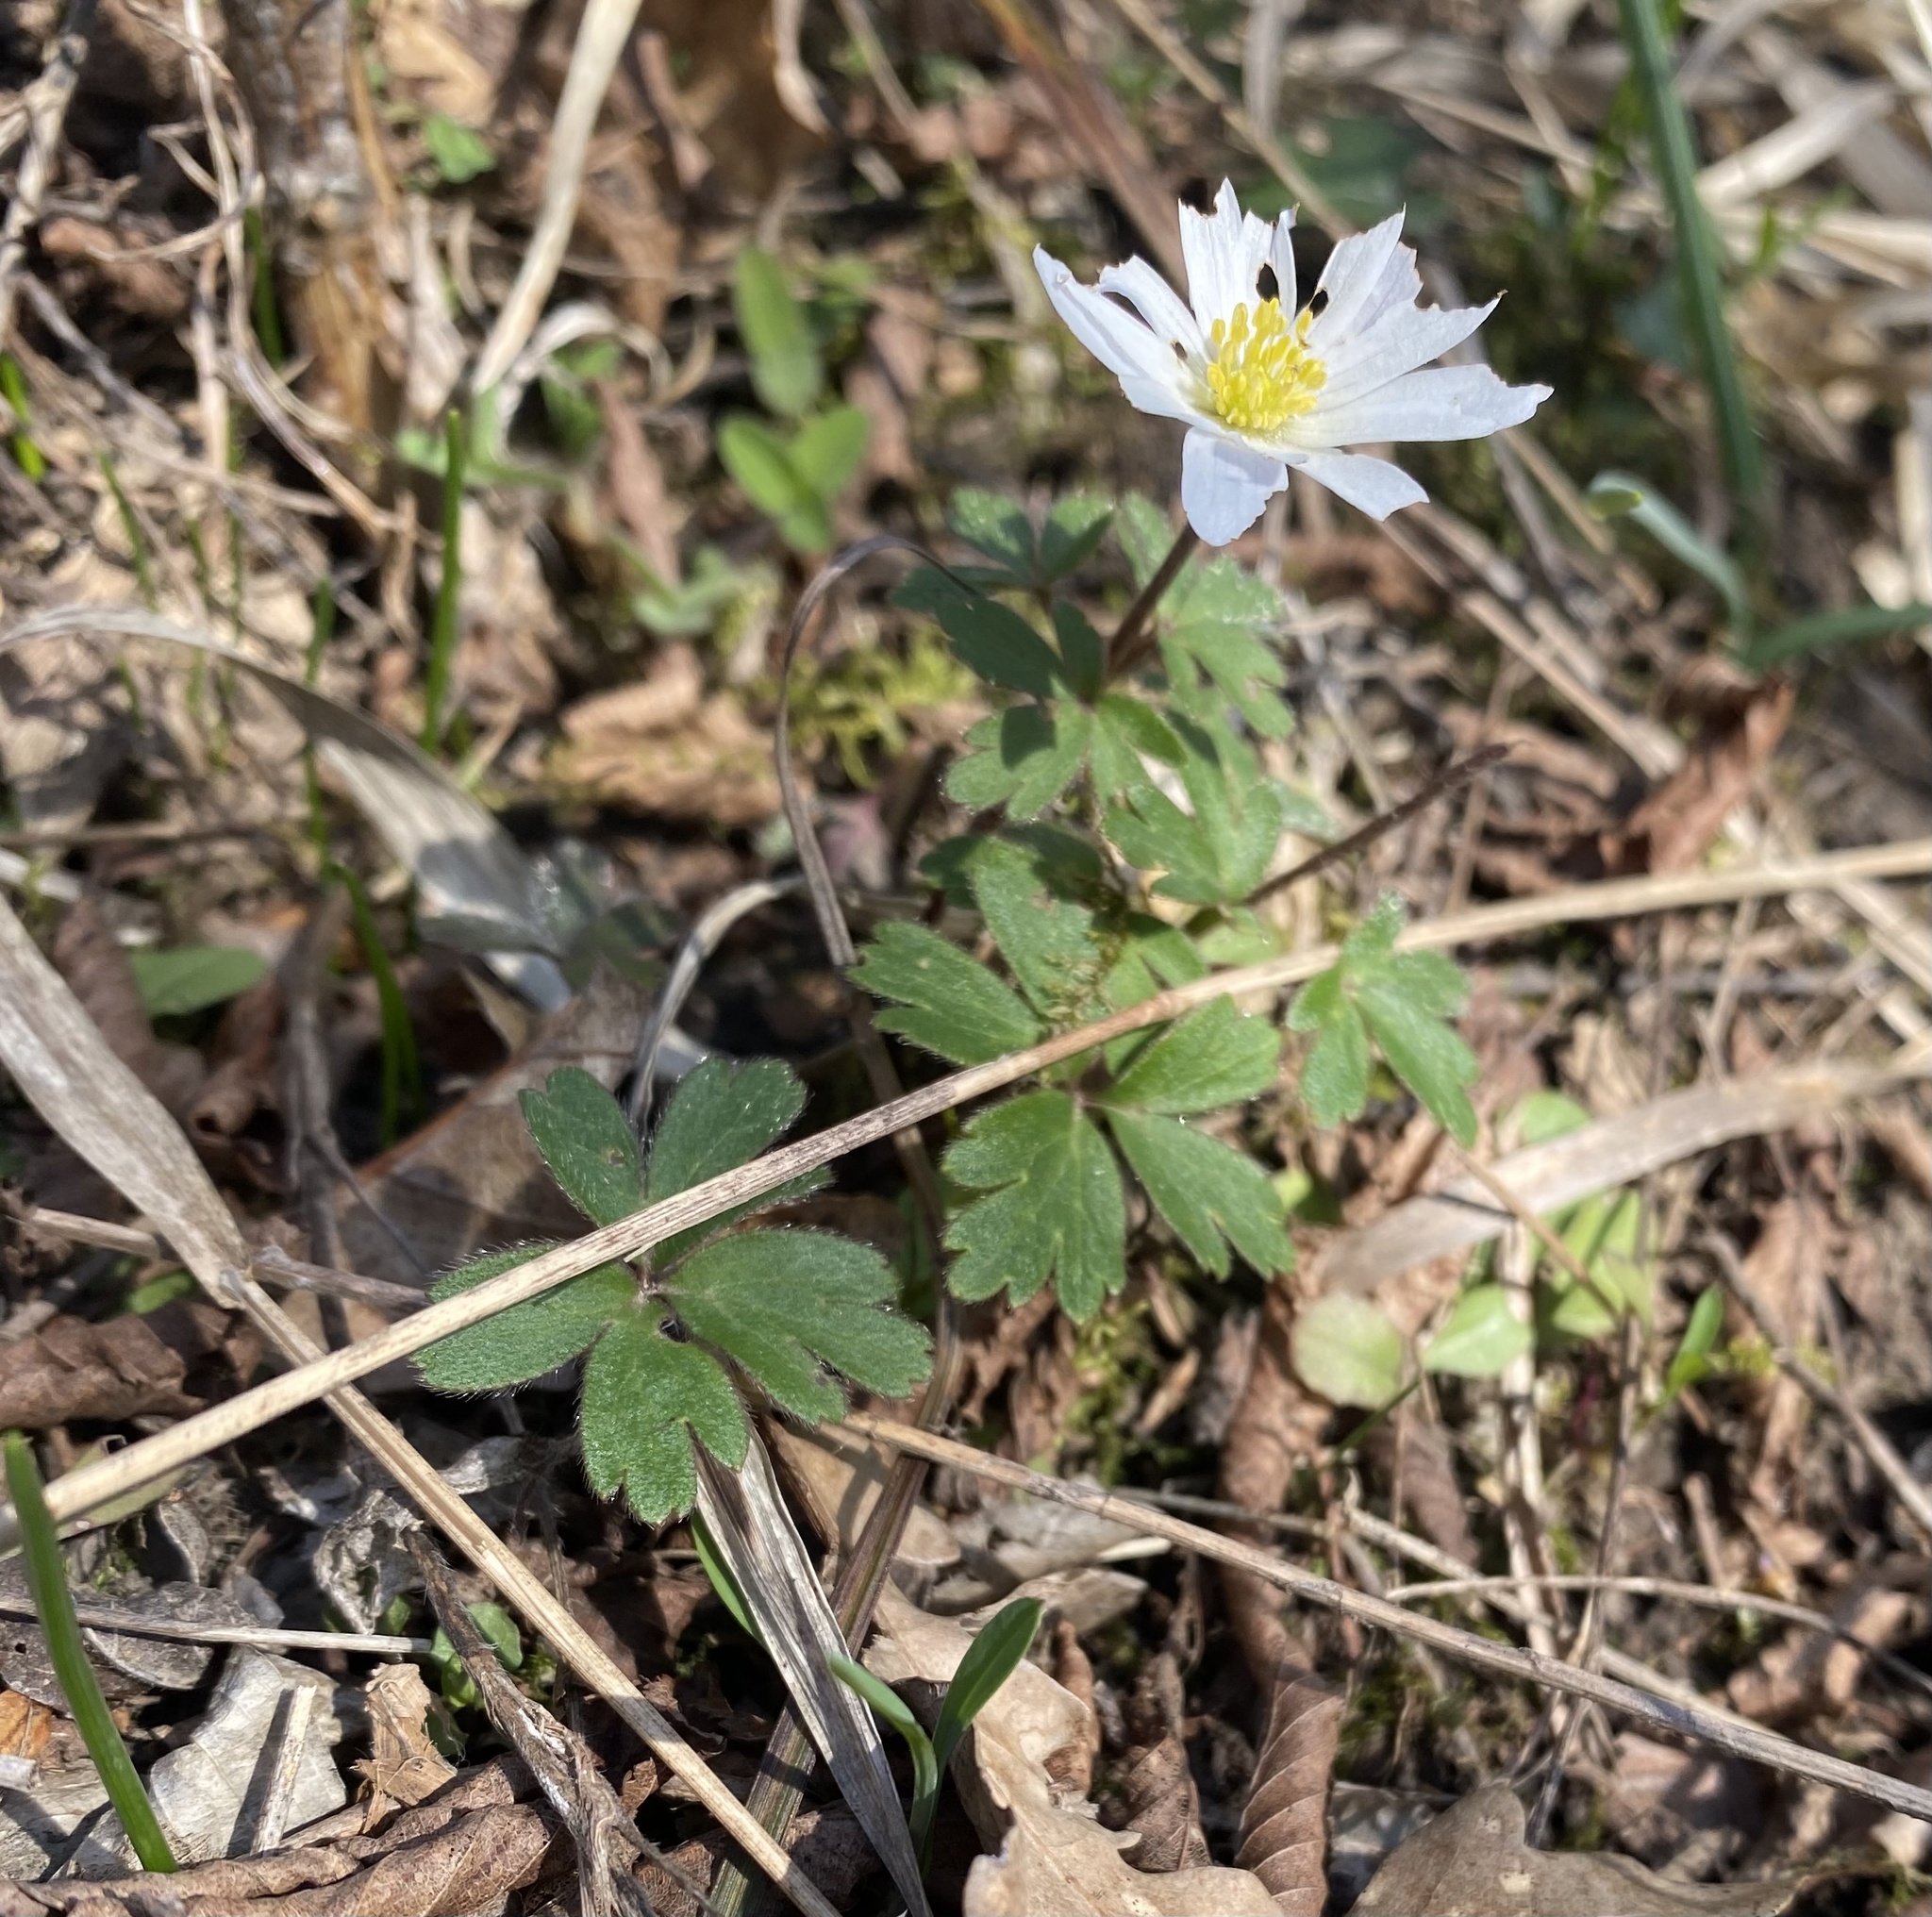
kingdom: Plantae
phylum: Tracheophyta
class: Magnoliopsida
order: Ranunculales
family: Ranunculaceae
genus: Anemone
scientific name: Anemone blanda
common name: Balkan anemone
